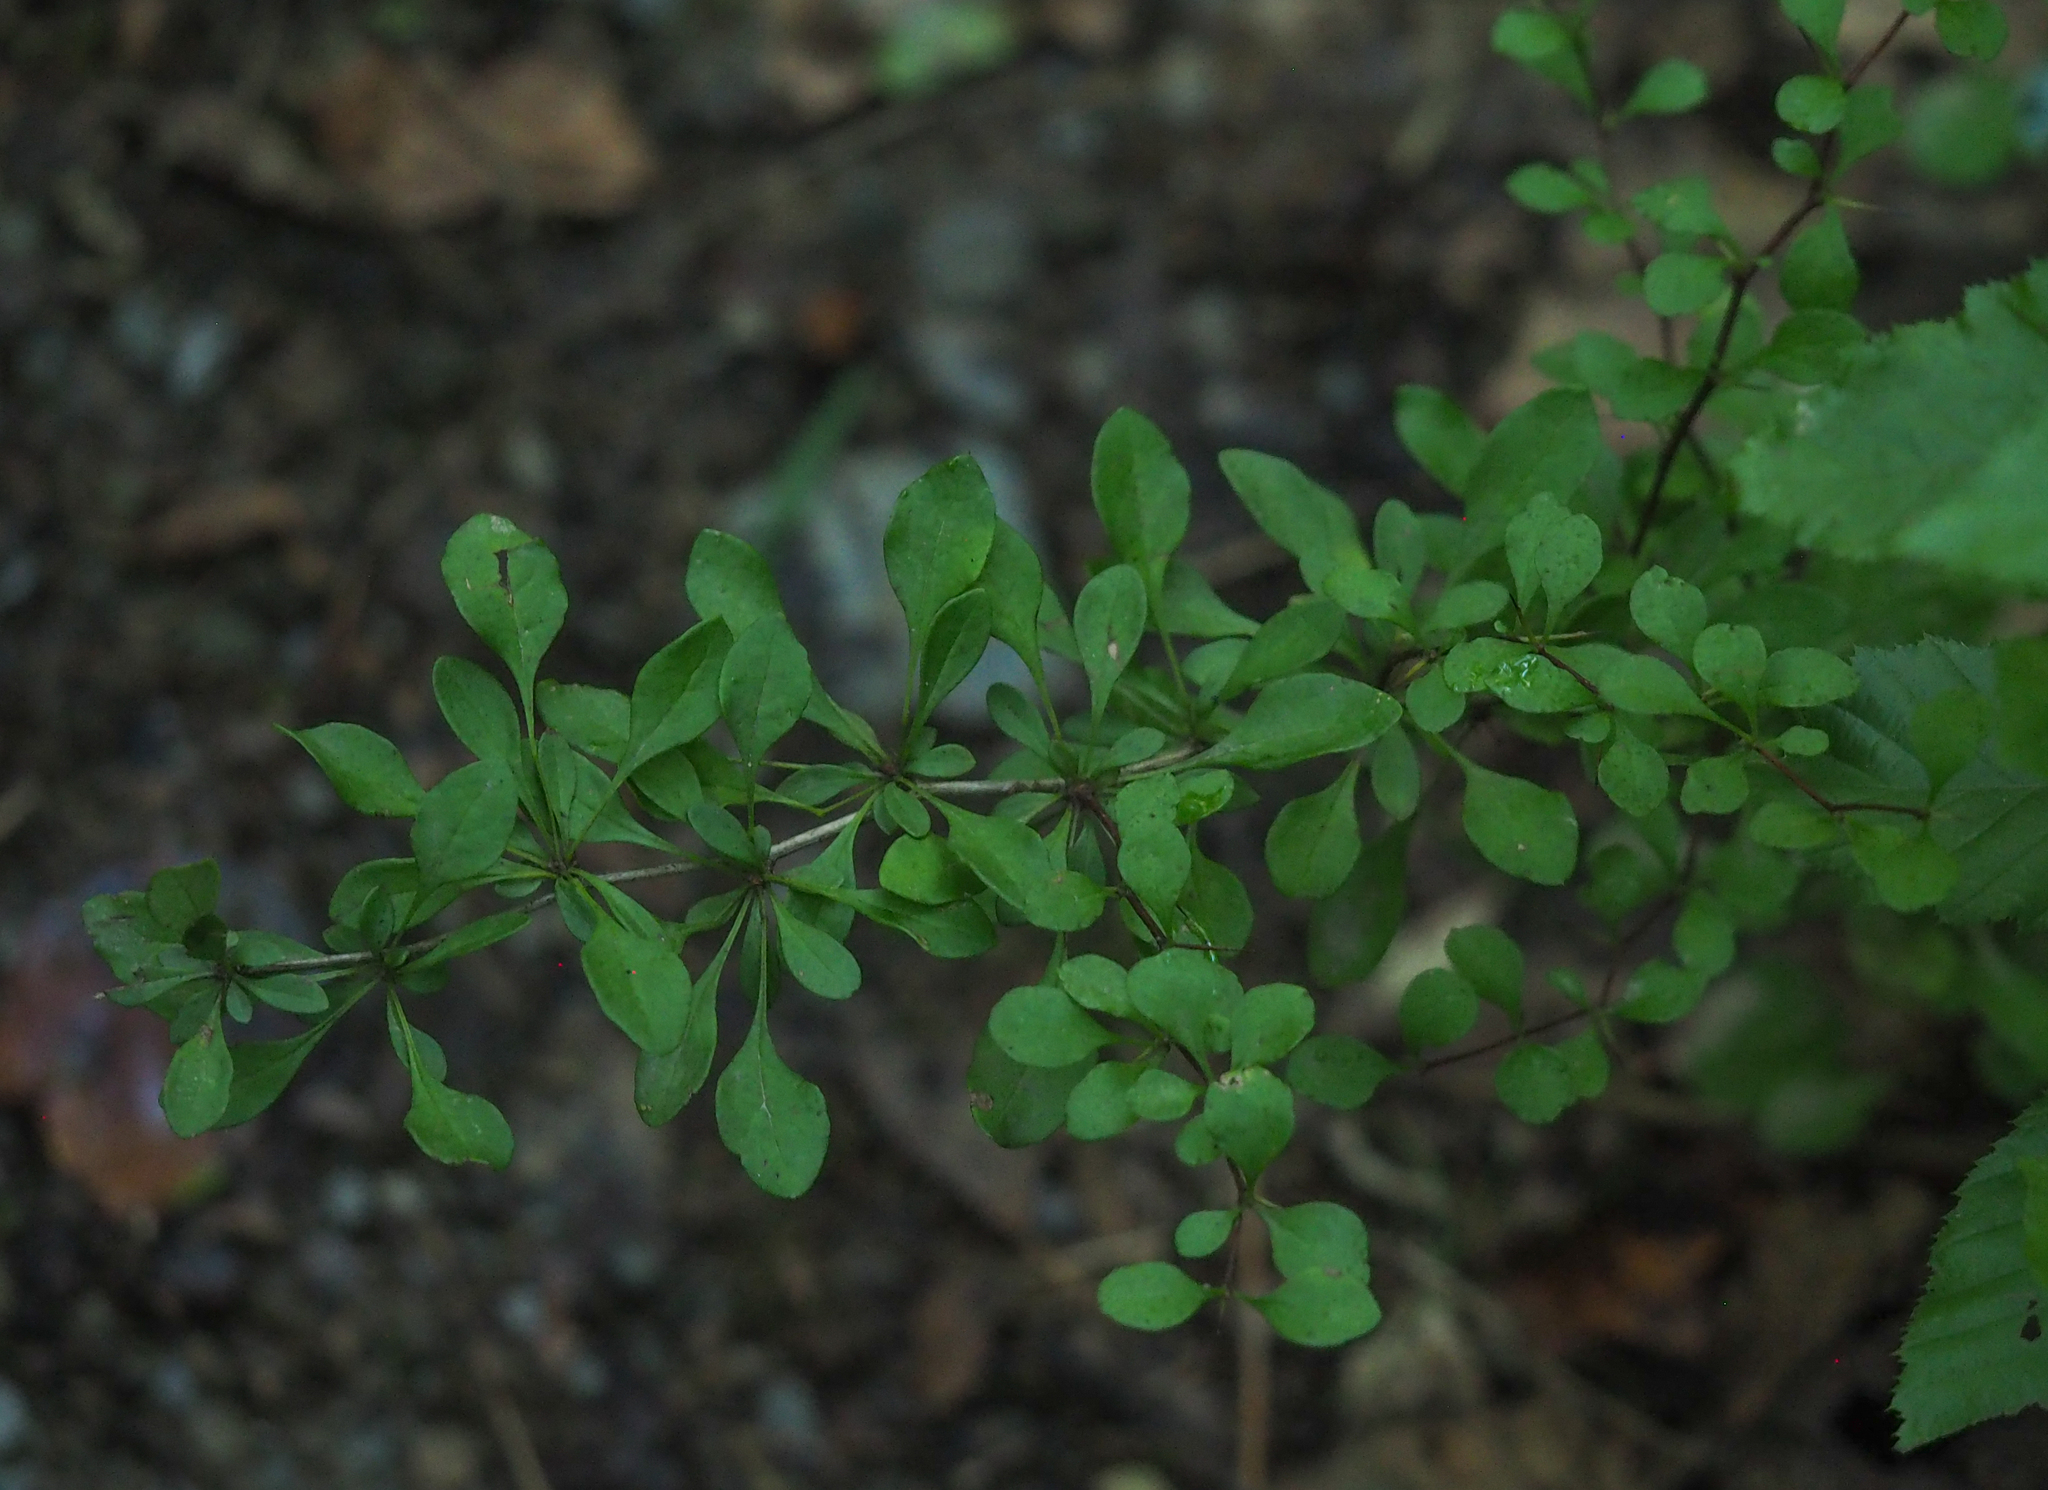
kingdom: Plantae
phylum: Tracheophyta
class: Magnoliopsida
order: Ranunculales
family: Berberidaceae
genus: Berberis
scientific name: Berberis thunbergii
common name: Japanese barberry
